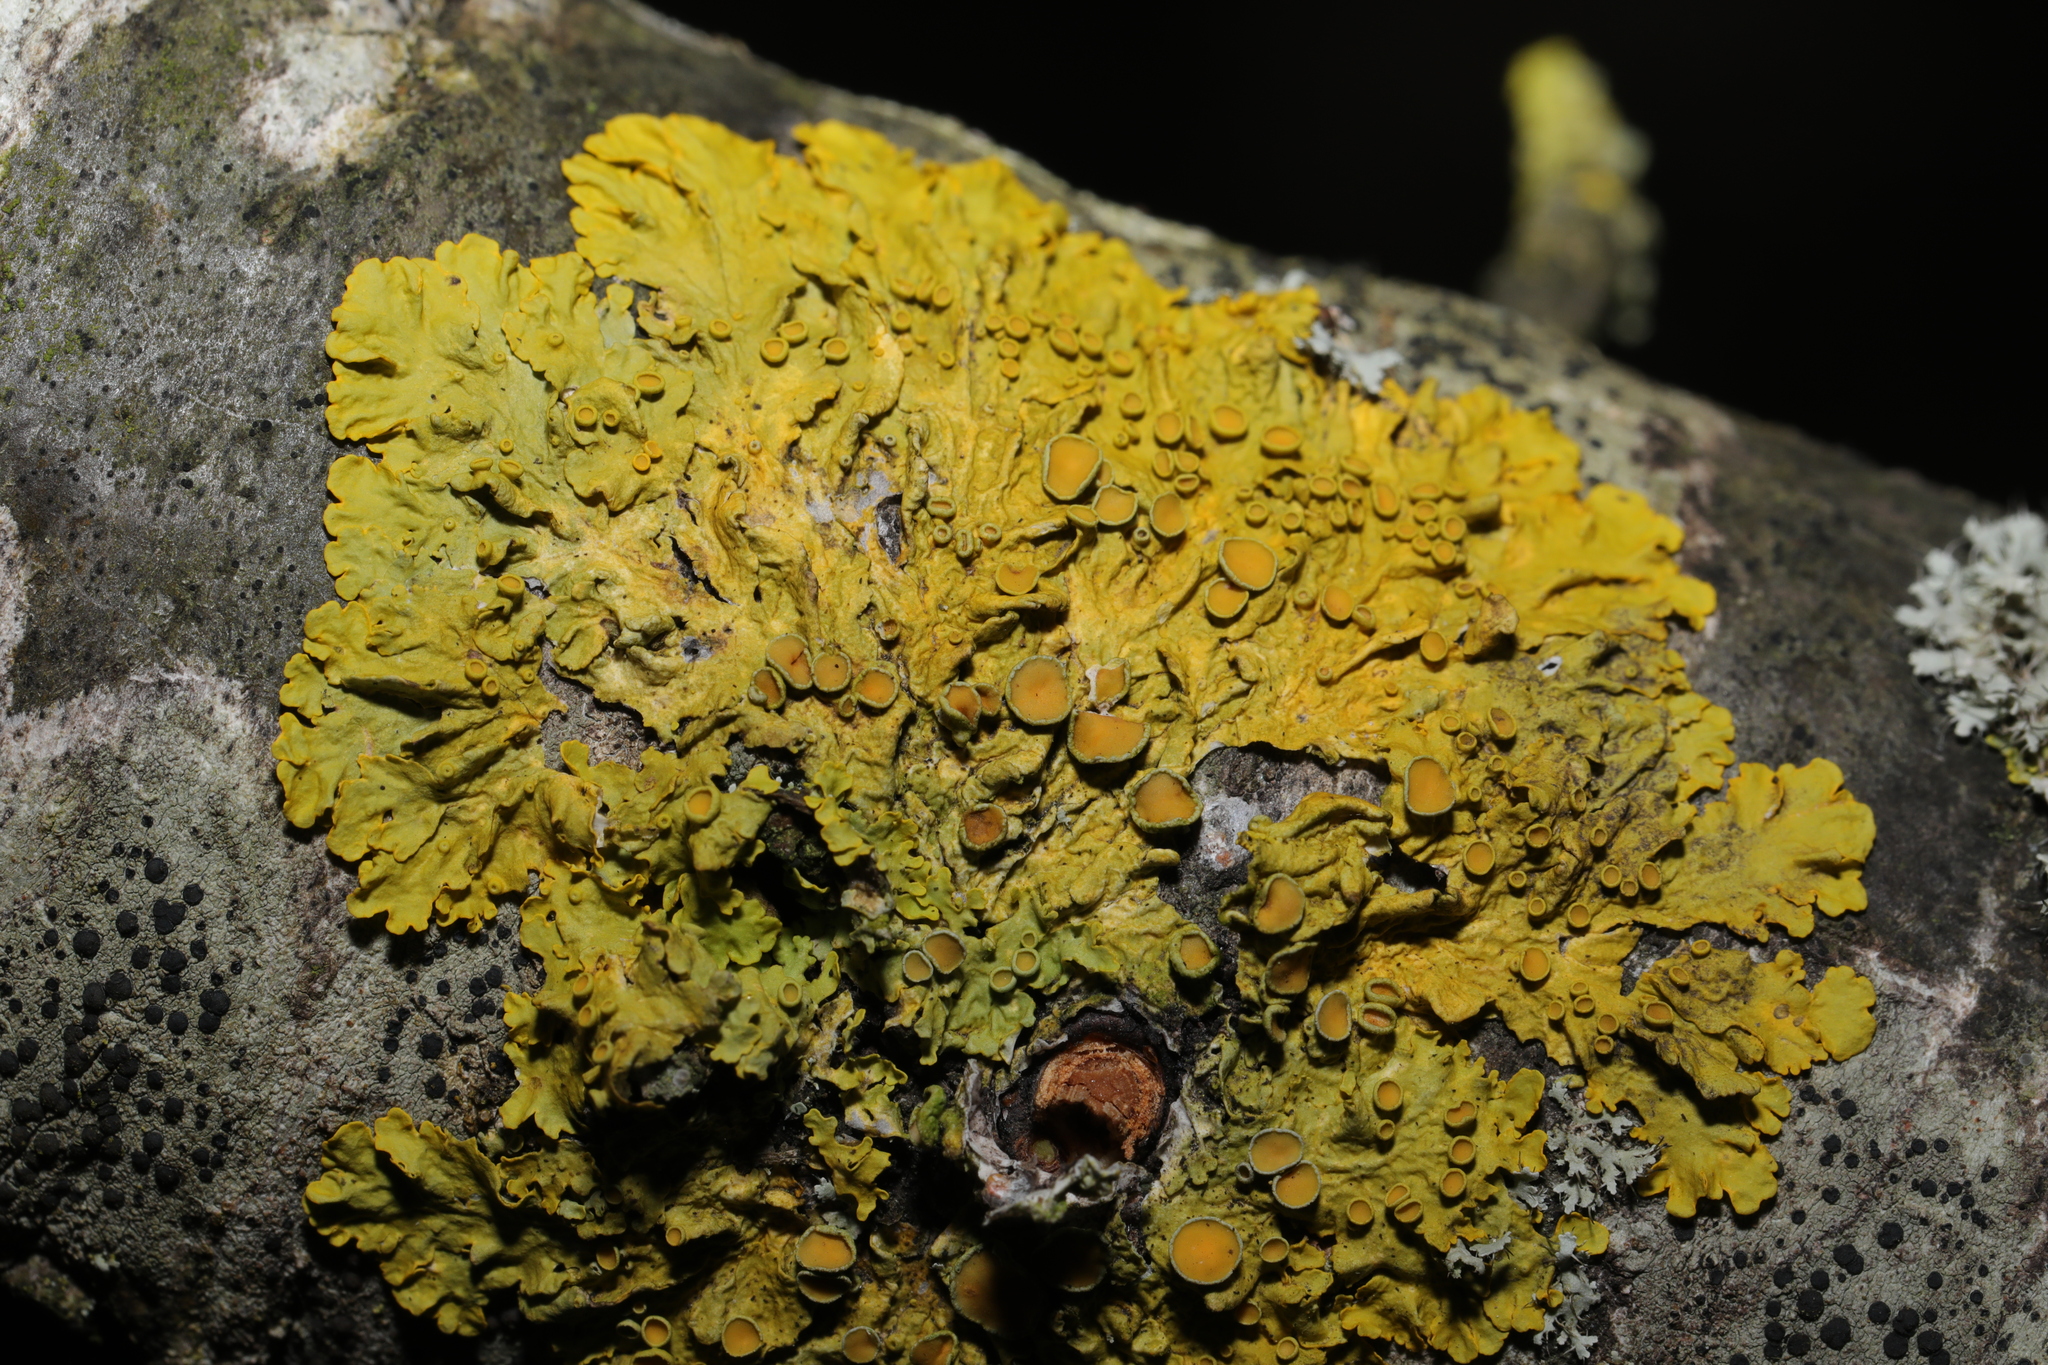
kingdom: Fungi
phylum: Ascomycota
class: Lecanoromycetes
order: Teloschistales
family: Teloschistaceae
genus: Xanthoria
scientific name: Xanthoria parietina
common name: Common orange lichen
